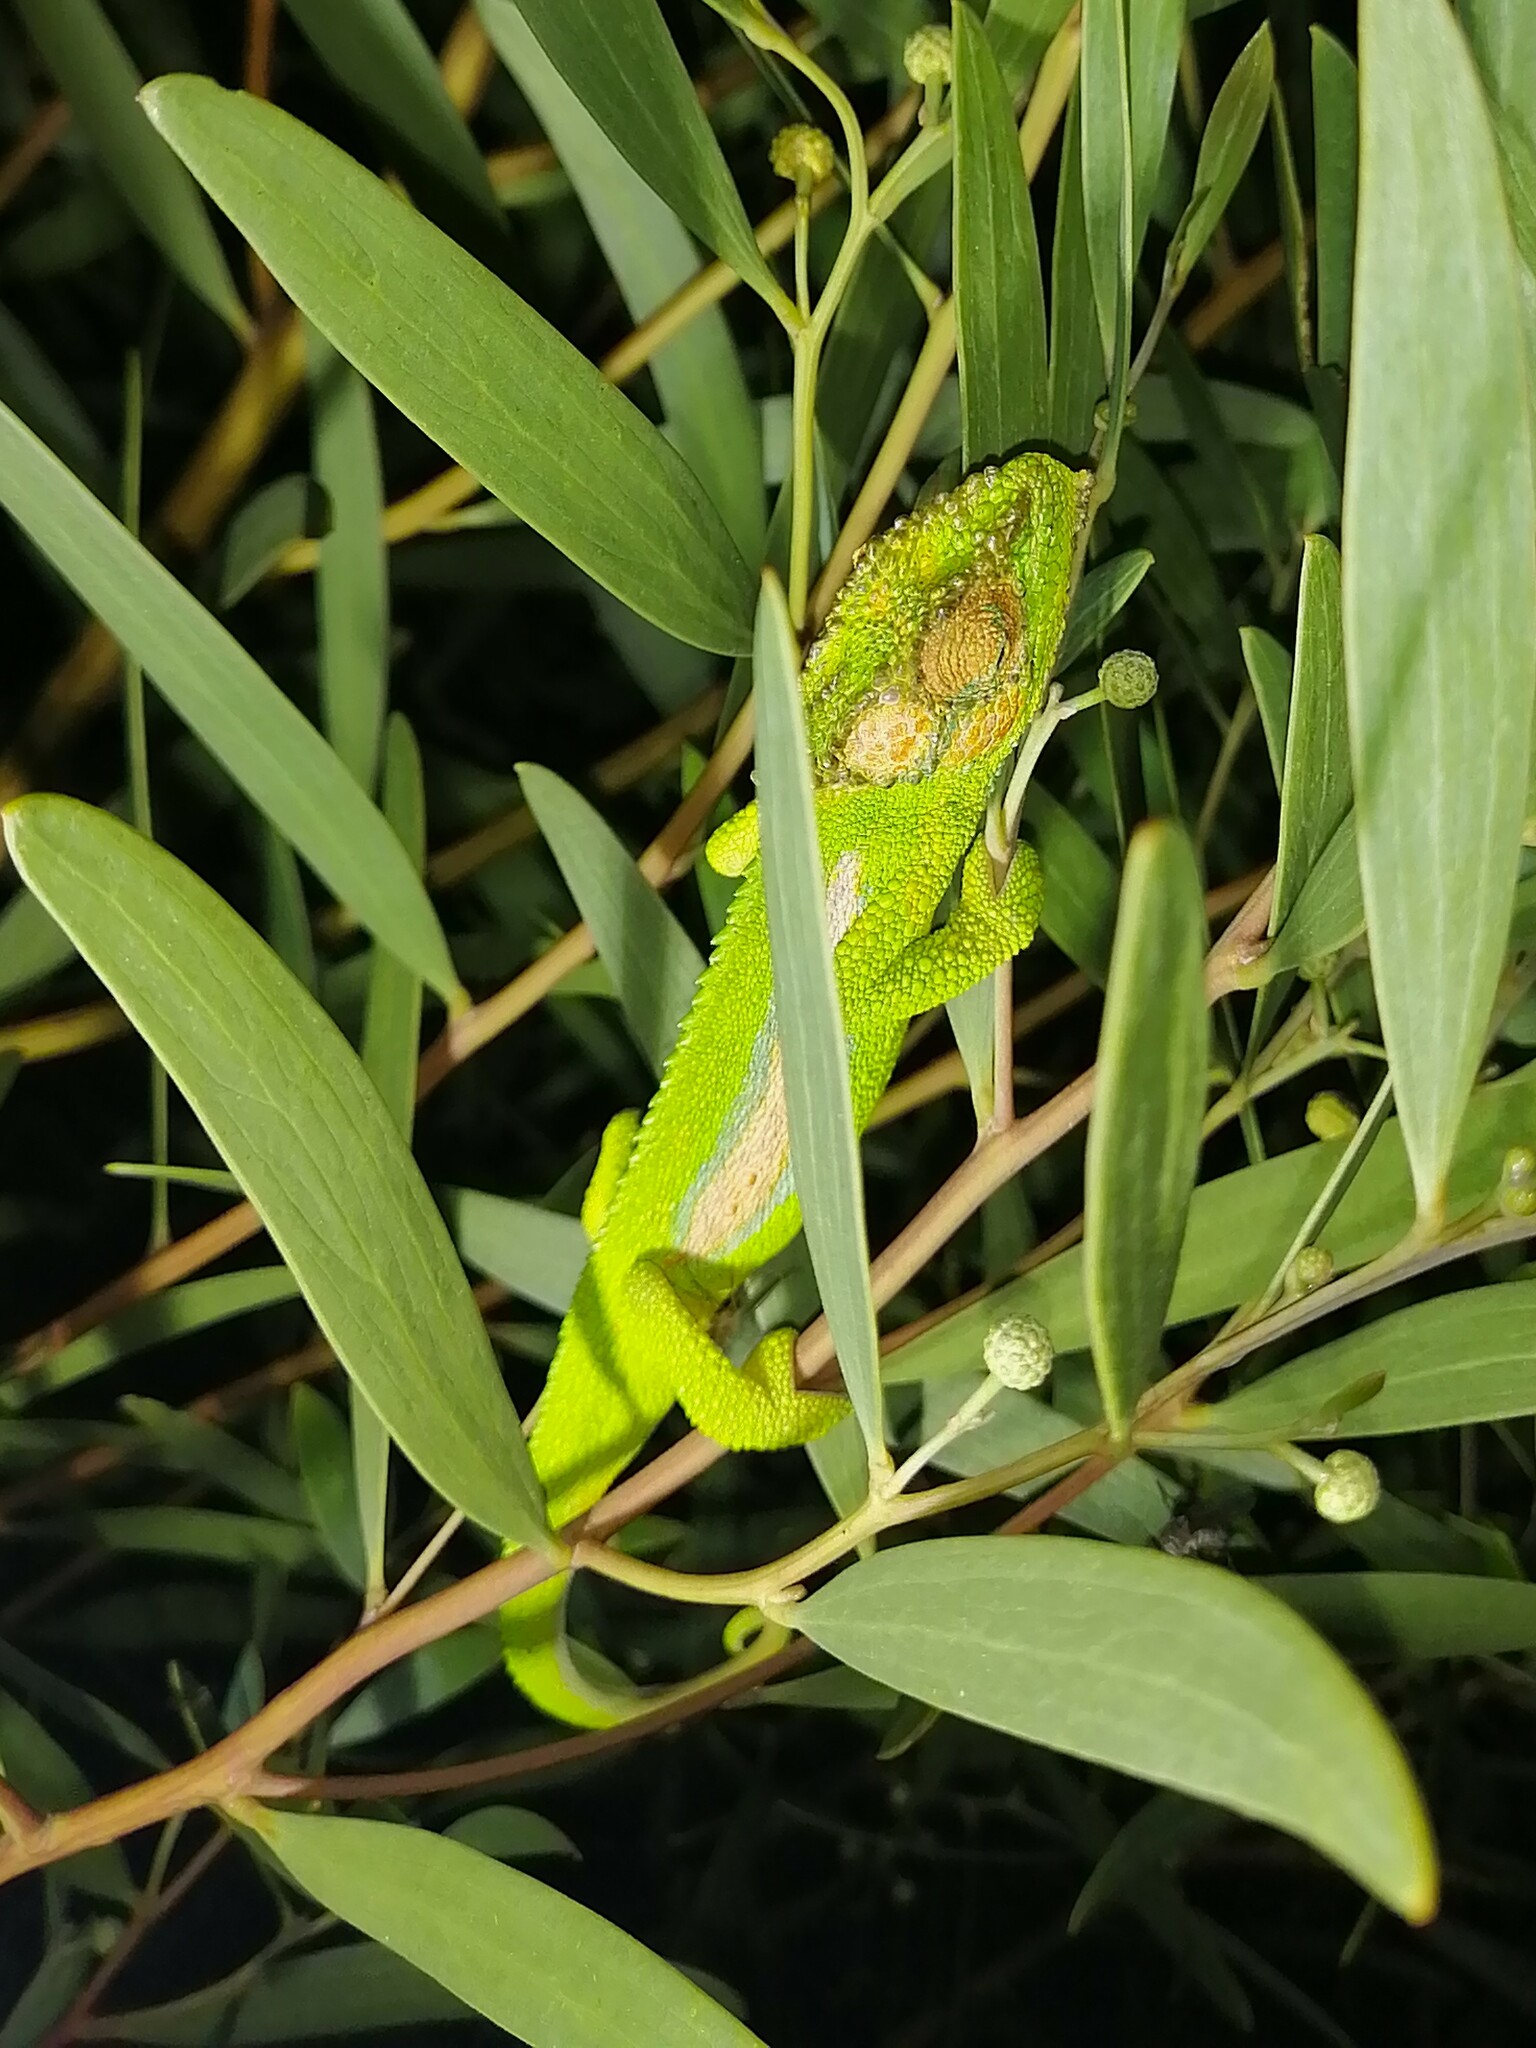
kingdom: Animalia
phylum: Chordata
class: Squamata
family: Chamaeleonidae
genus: Bradypodion
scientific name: Bradypodion pumilum
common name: Cape dwarf chameleon
